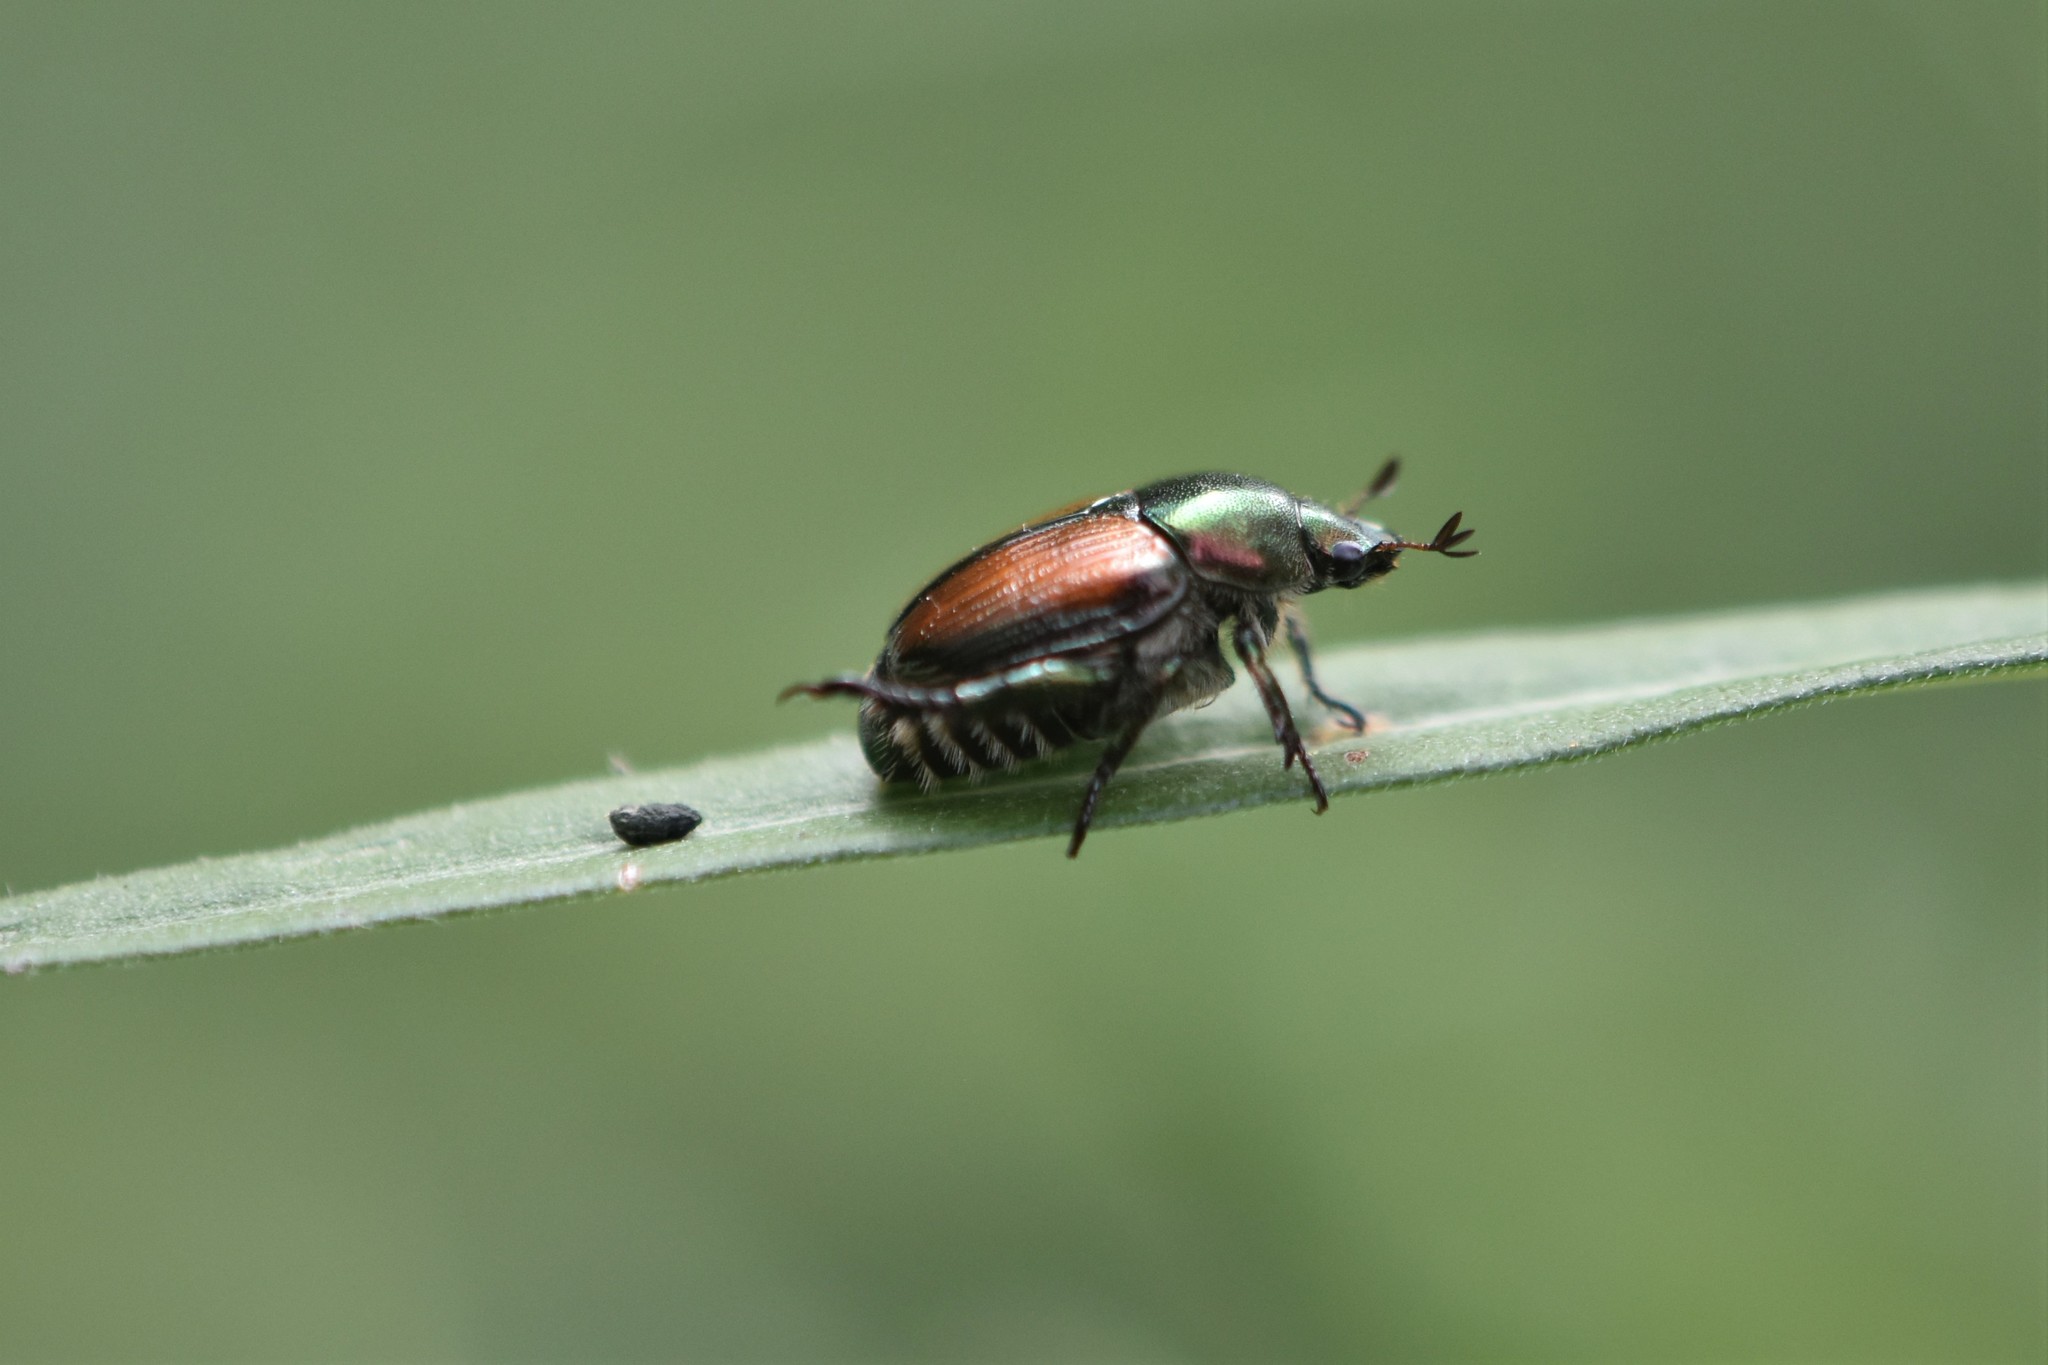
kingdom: Animalia
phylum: Arthropoda
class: Insecta
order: Coleoptera
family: Scarabaeidae
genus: Popillia
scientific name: Popillia japonica
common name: Japanese beetle
